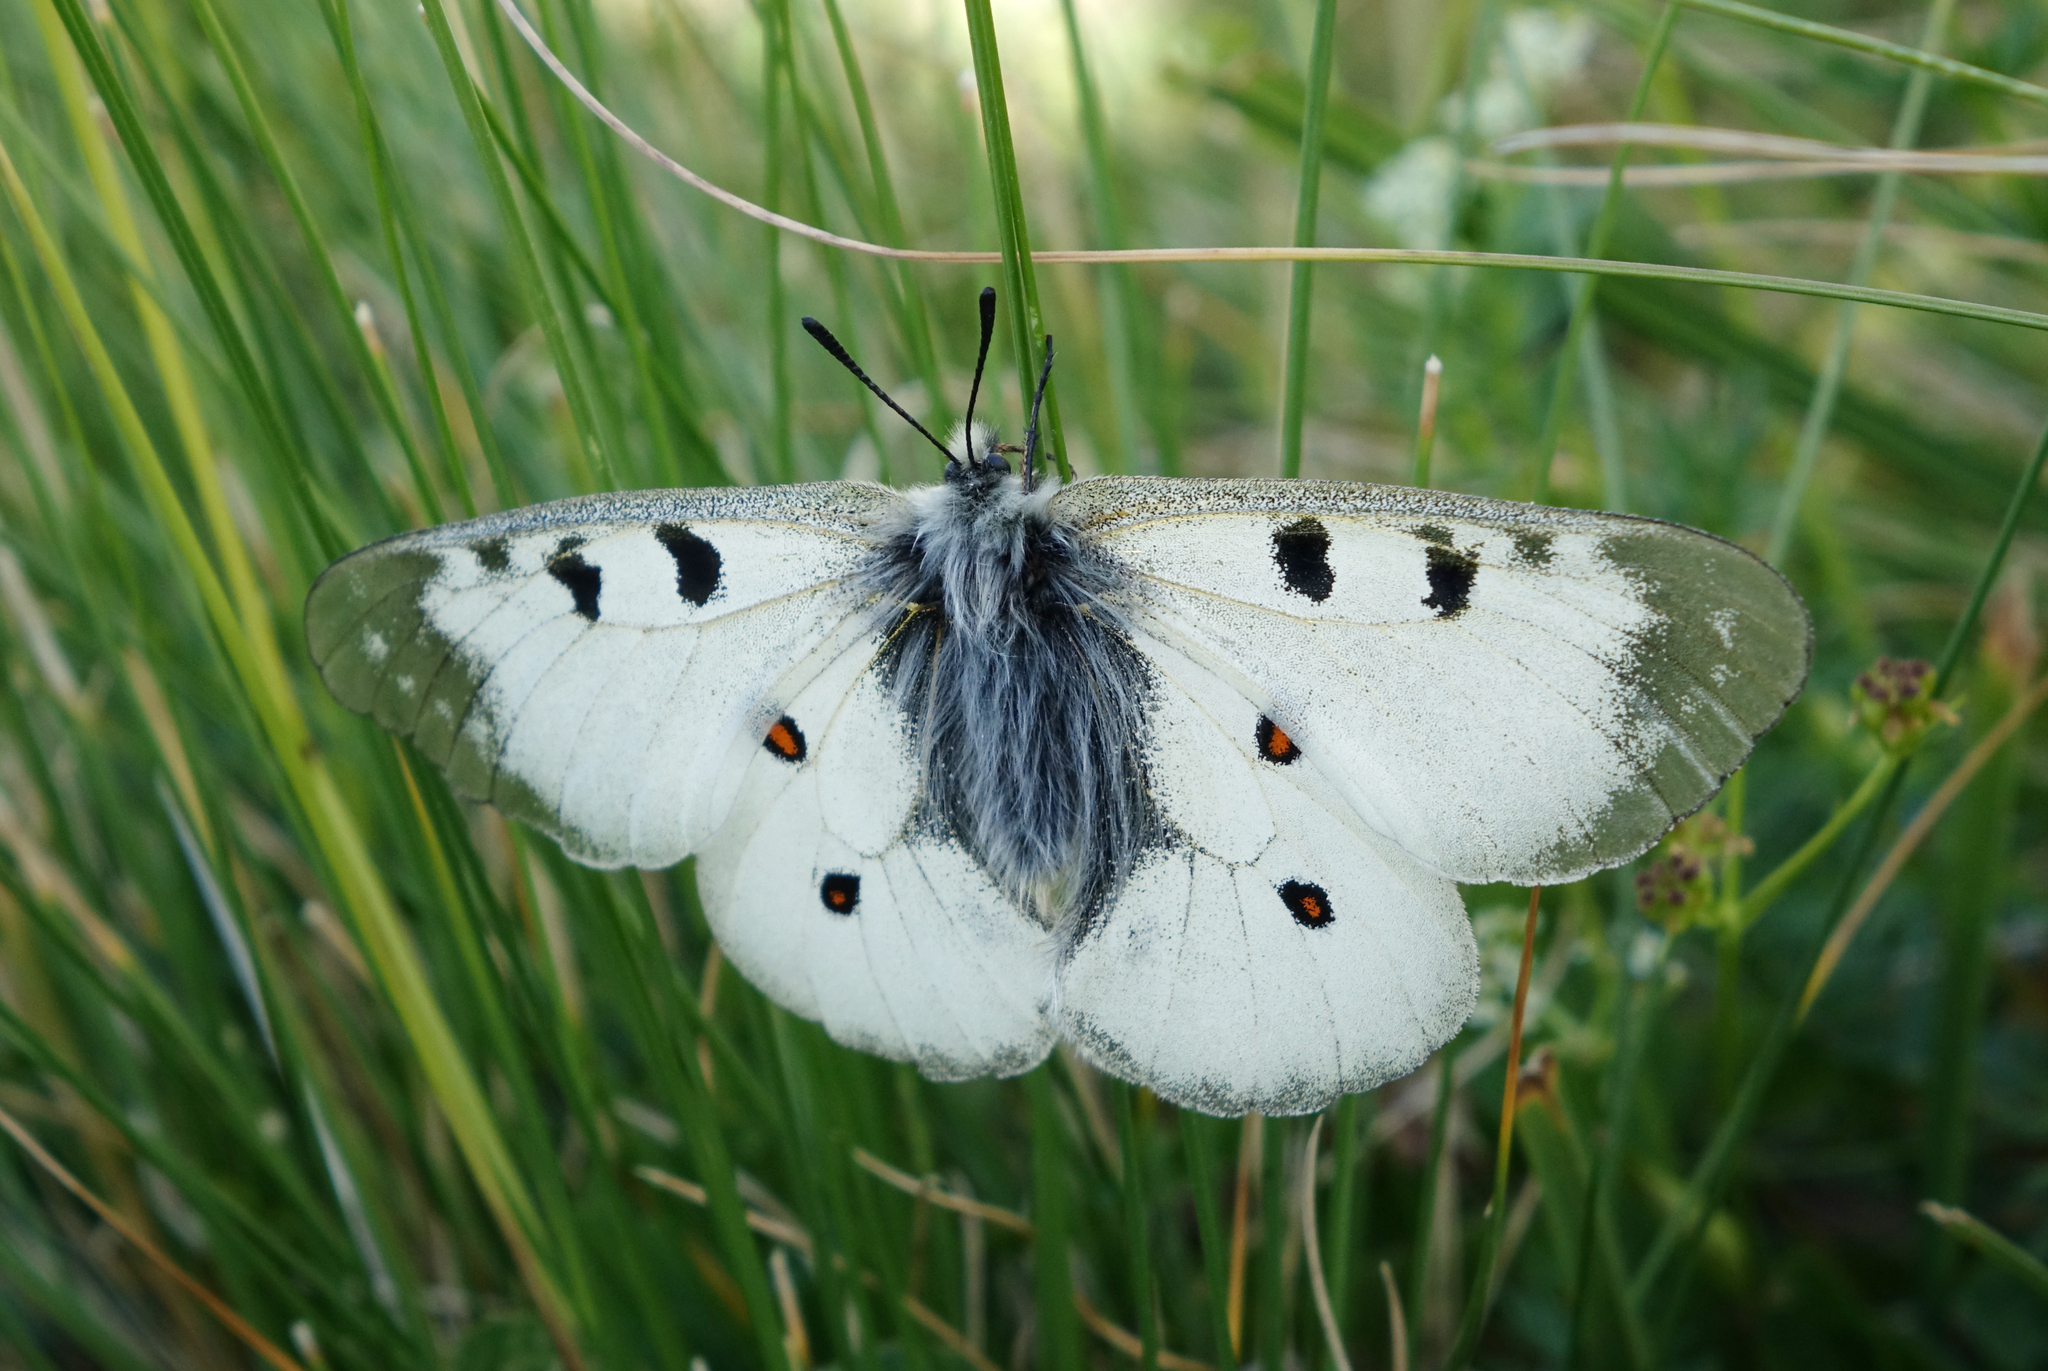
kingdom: Animalia
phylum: Arthropoda
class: Insecta
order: Lepidoptera
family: Papilionidae
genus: Parnassius
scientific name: Parnassius nordmanni
